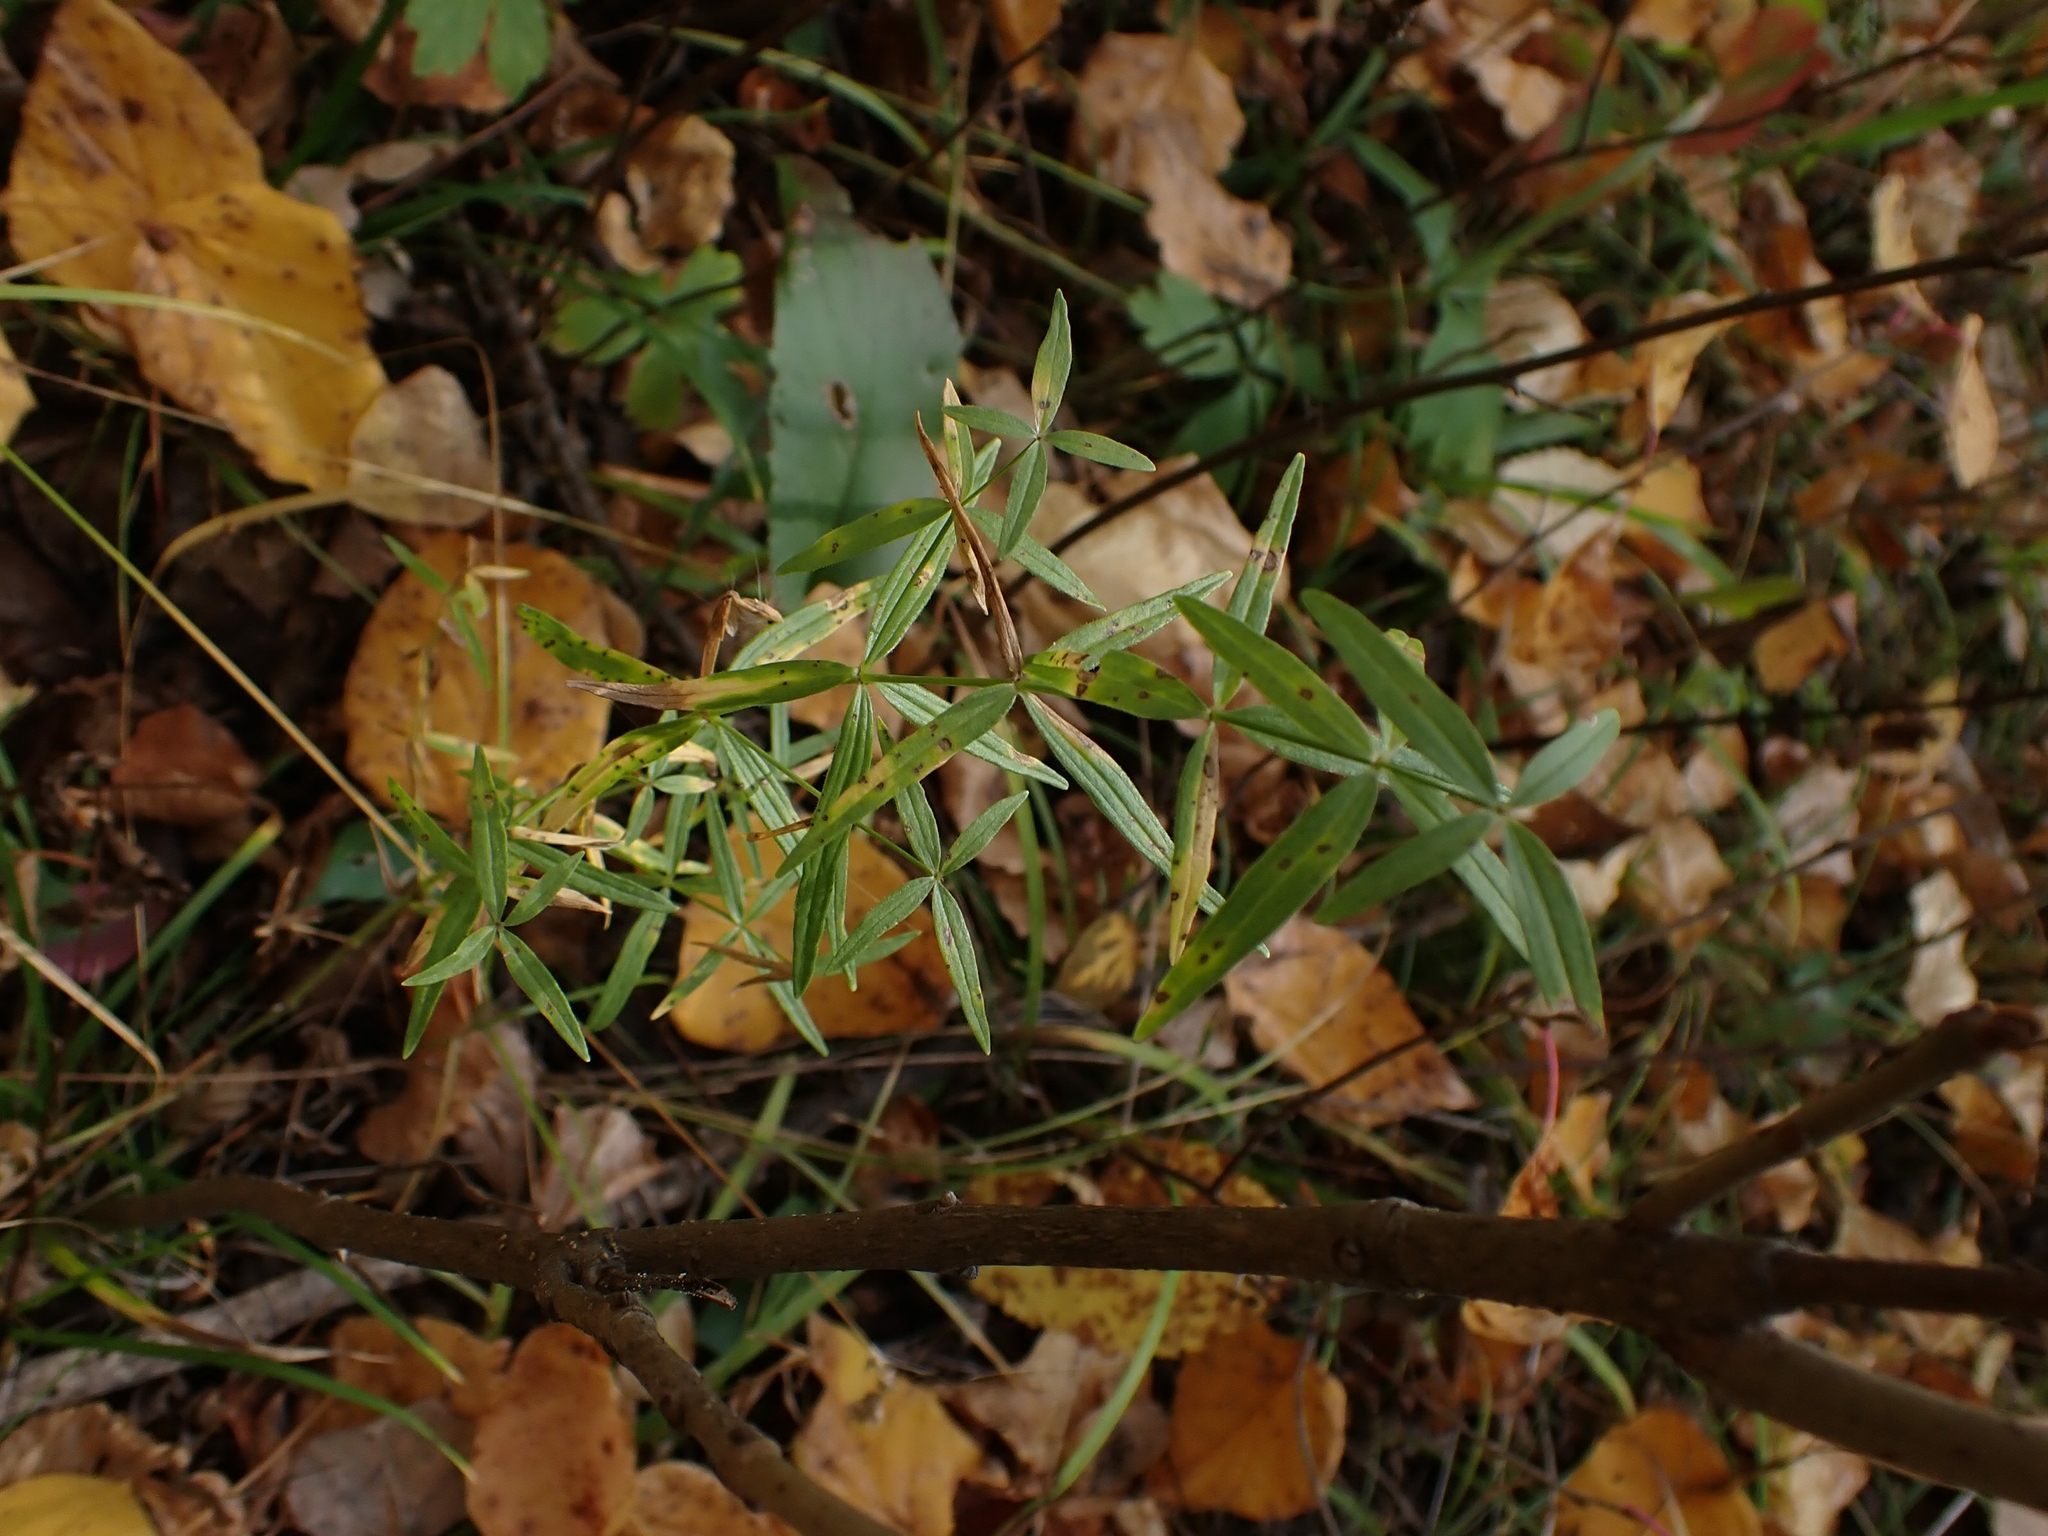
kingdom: Plantae
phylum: Tracheophyta
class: Magnoliopsida
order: Gentianales
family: Rubiaceae
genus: Galium
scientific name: Galium boreale
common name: Northern bedstraw
